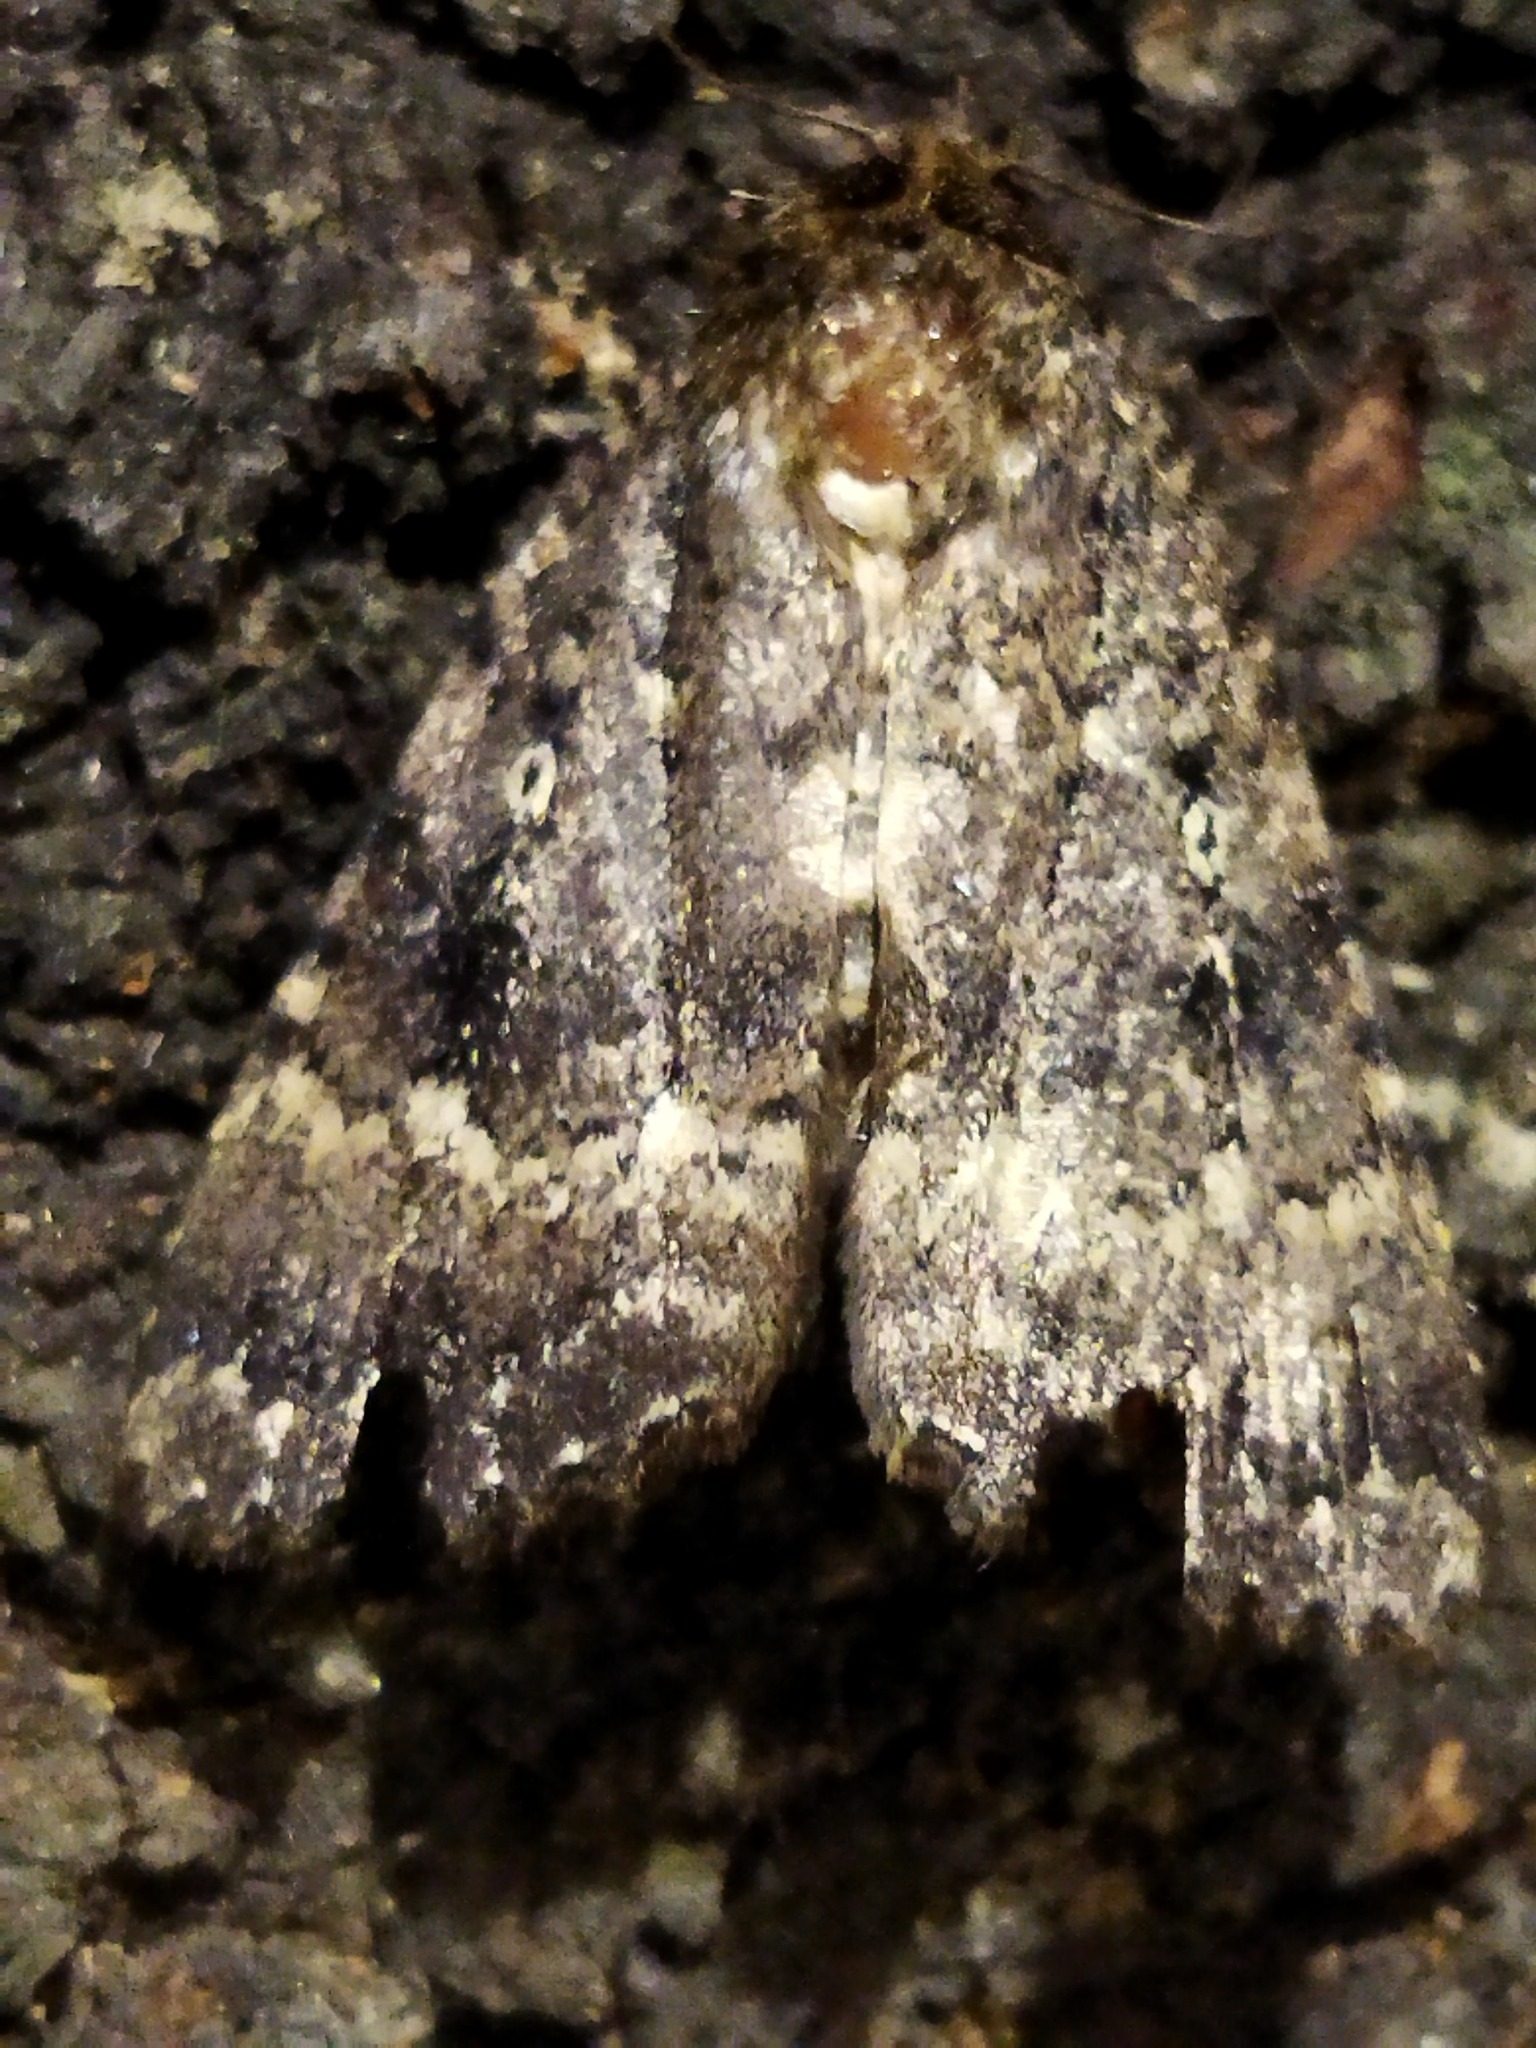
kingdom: Animalia
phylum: Arthropoda
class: Insecta
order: Lepidoptera
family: Noctuidae
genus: Amphipyra
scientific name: Amphipyra pyramidea
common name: Copper underwing
